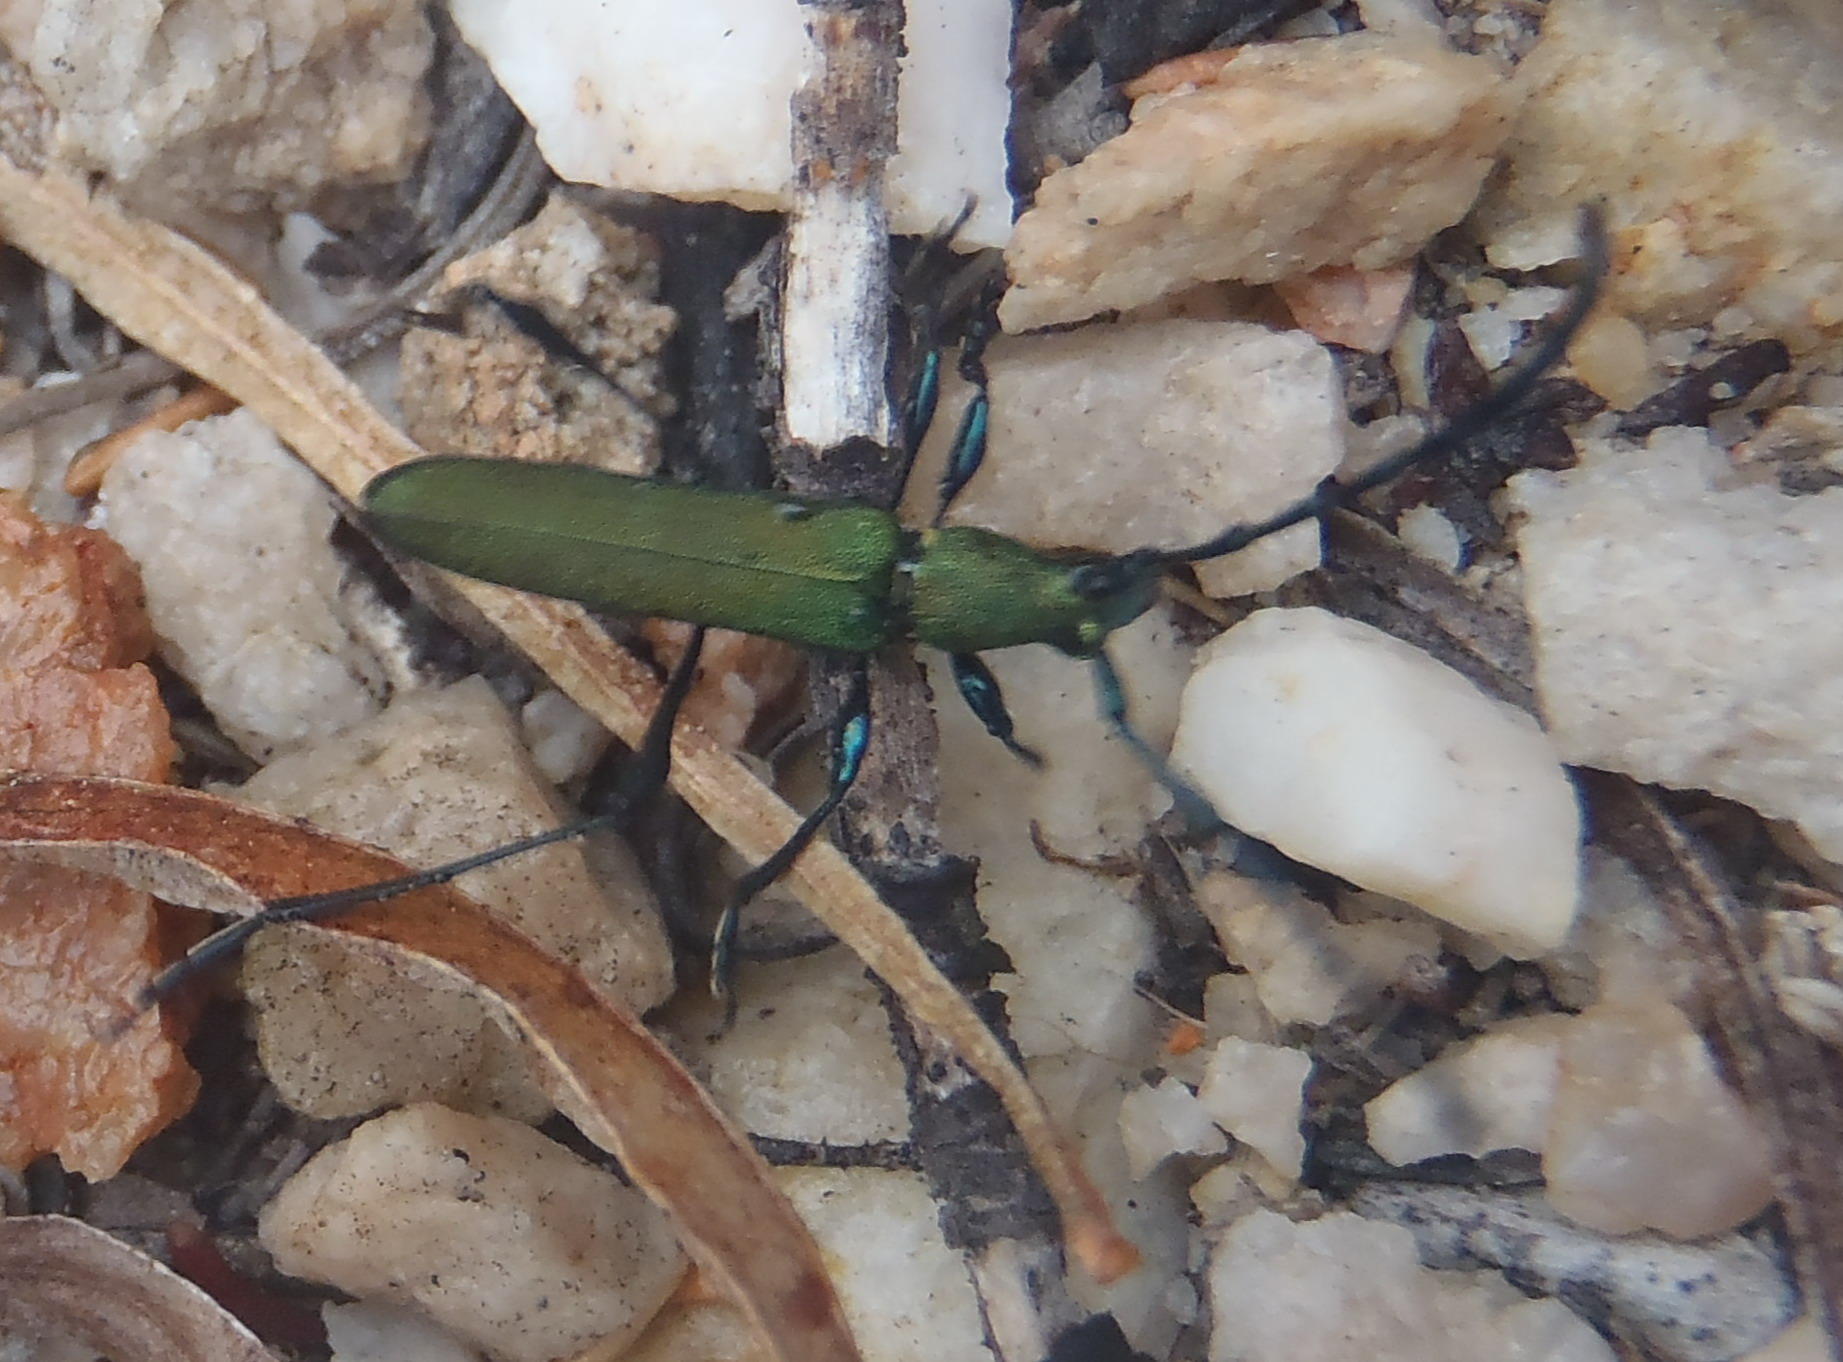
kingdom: Animalia
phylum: Arthropoda
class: Insecta
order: Coleoptera
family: Cerambycidae
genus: Hypocrites
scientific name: Hypocrites
